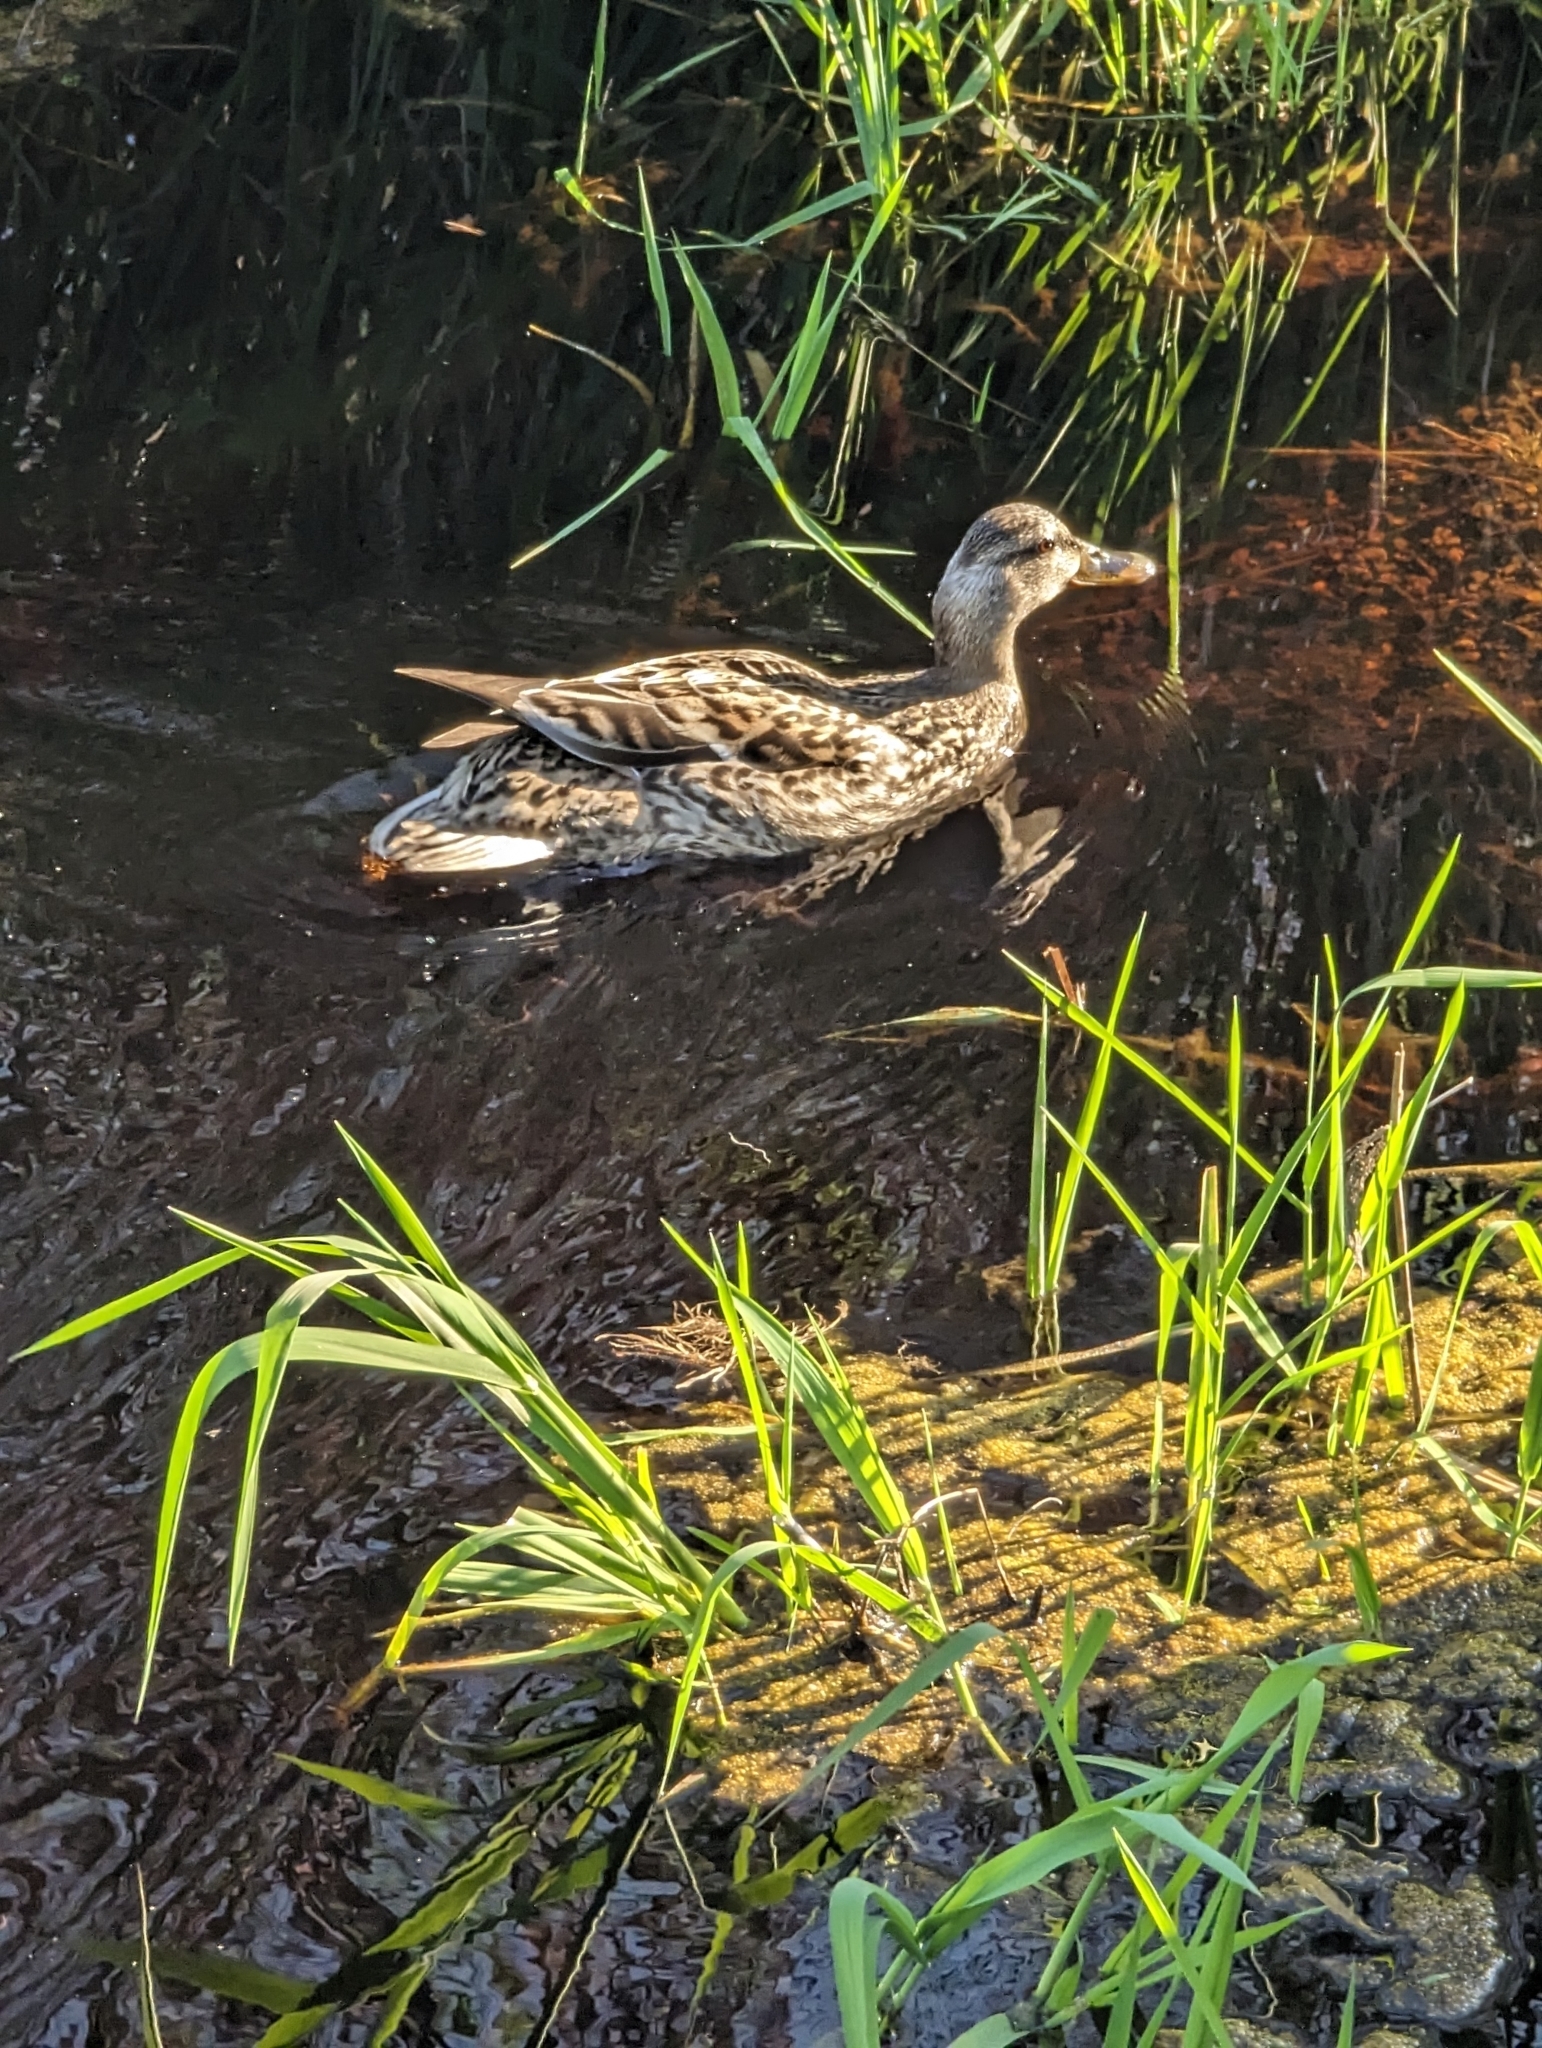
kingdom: Animalia
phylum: Chordata
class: Aves
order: Anseriformes
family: Anatidae
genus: Anas
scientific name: Anas platyrhynchos
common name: Mallard
